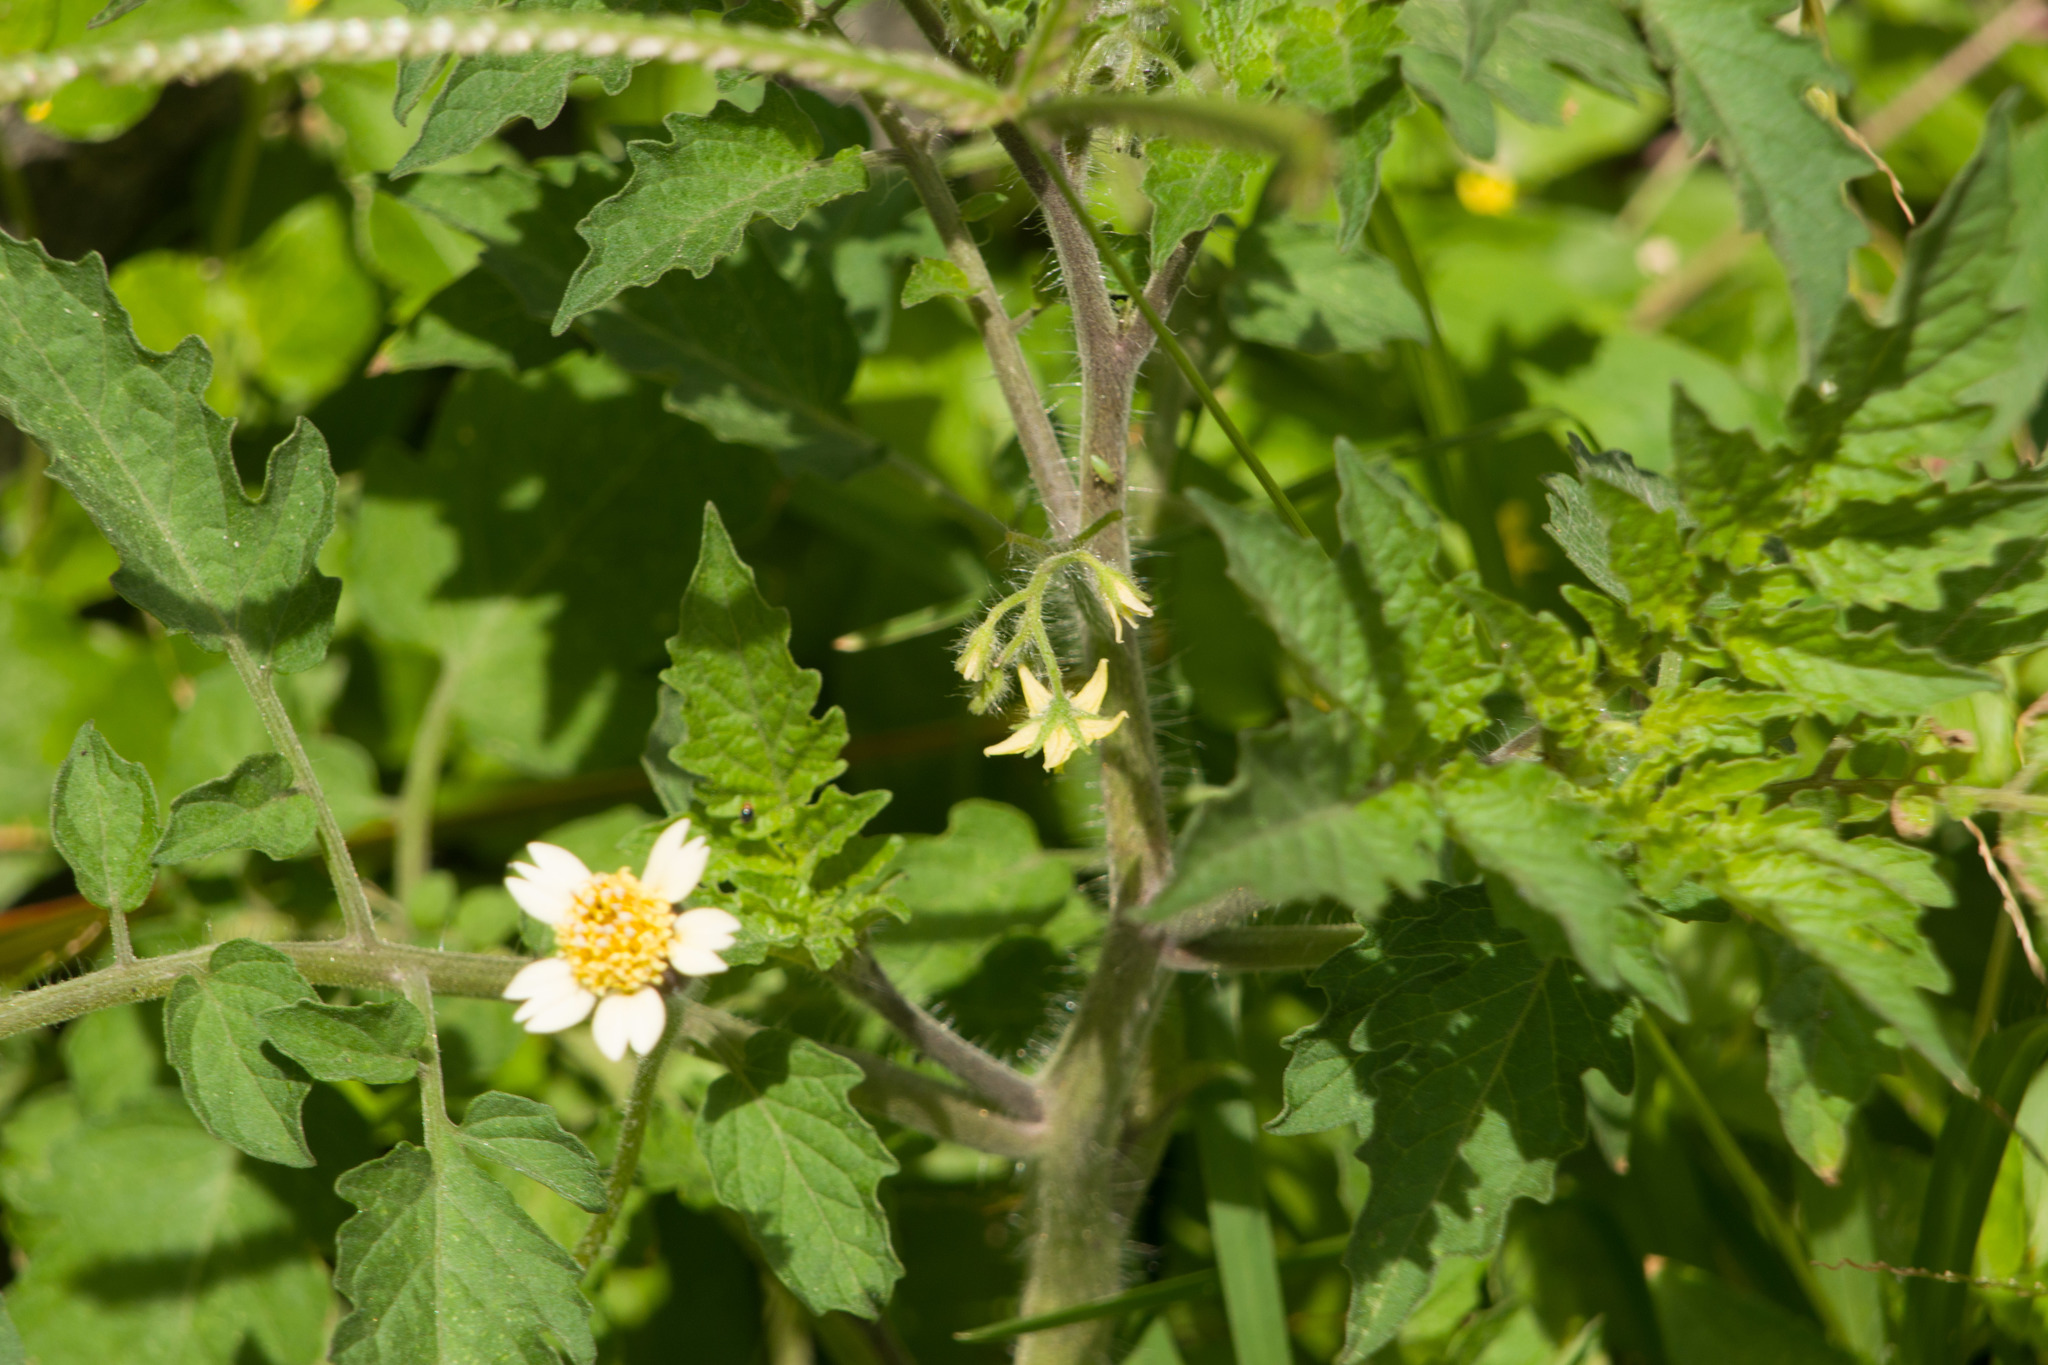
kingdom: Plantae
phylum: Tracheophyta
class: Magnoliopsida
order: Solanales
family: Solanaceae
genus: Solanum
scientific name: Solanum lycopersicum
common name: Garden tomato
